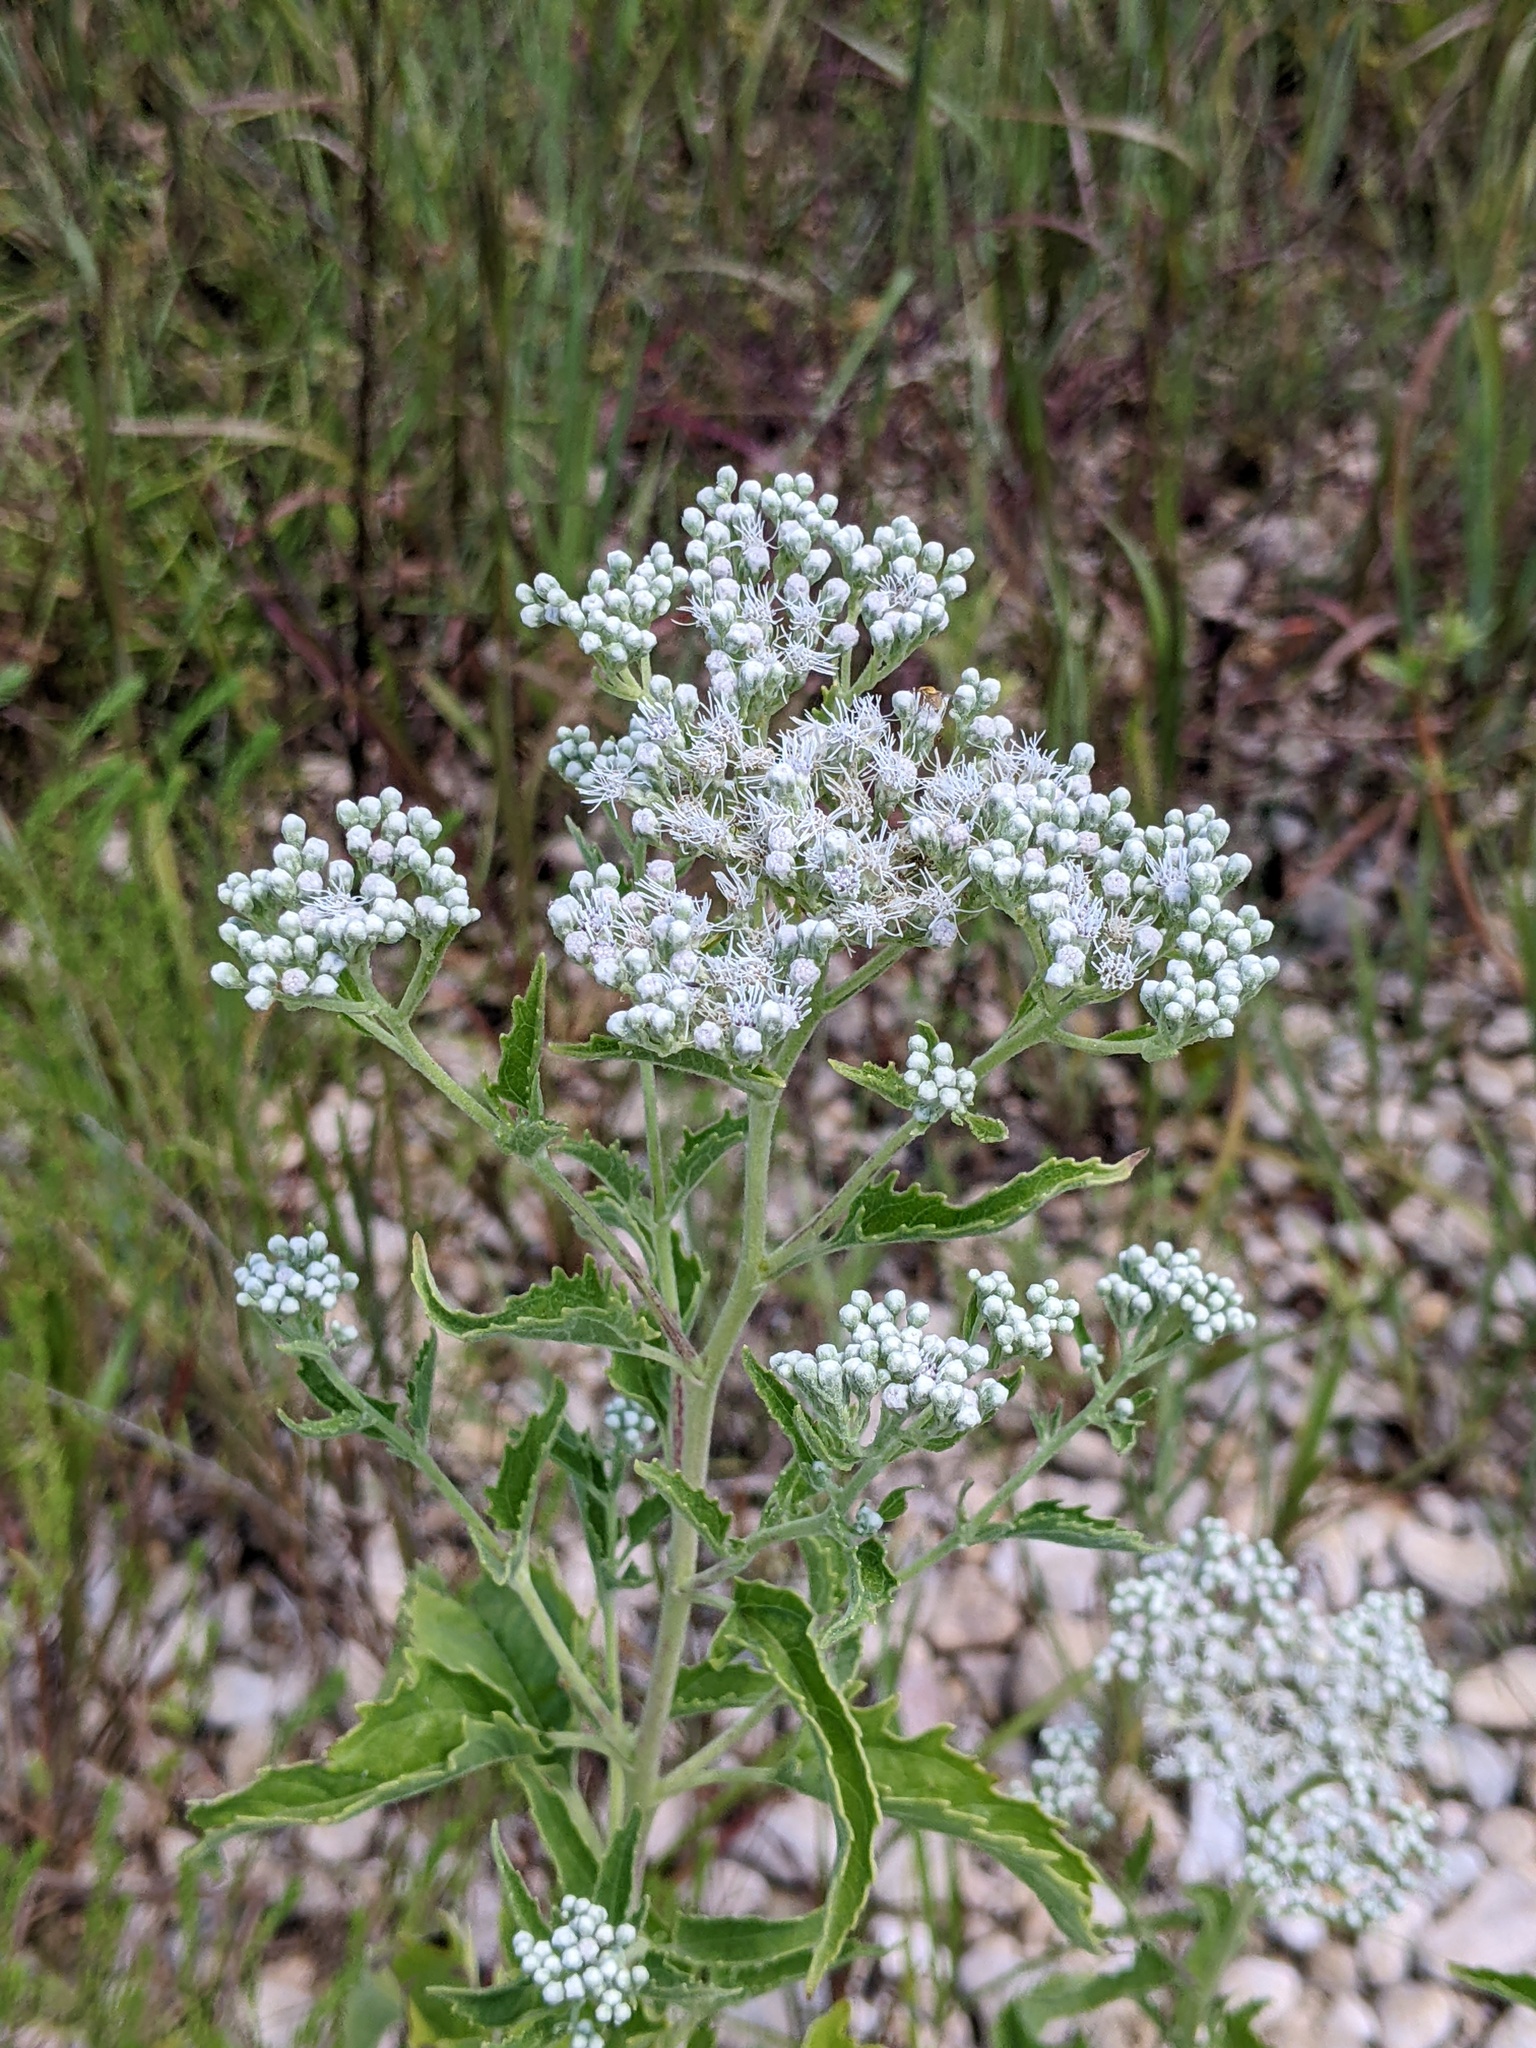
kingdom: Plantae
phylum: Tracheophyta
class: Magnoliopsida
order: Asterales
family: Asteraceae
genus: Eupatorium
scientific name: Eupatorium serotinum
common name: Late boneset
